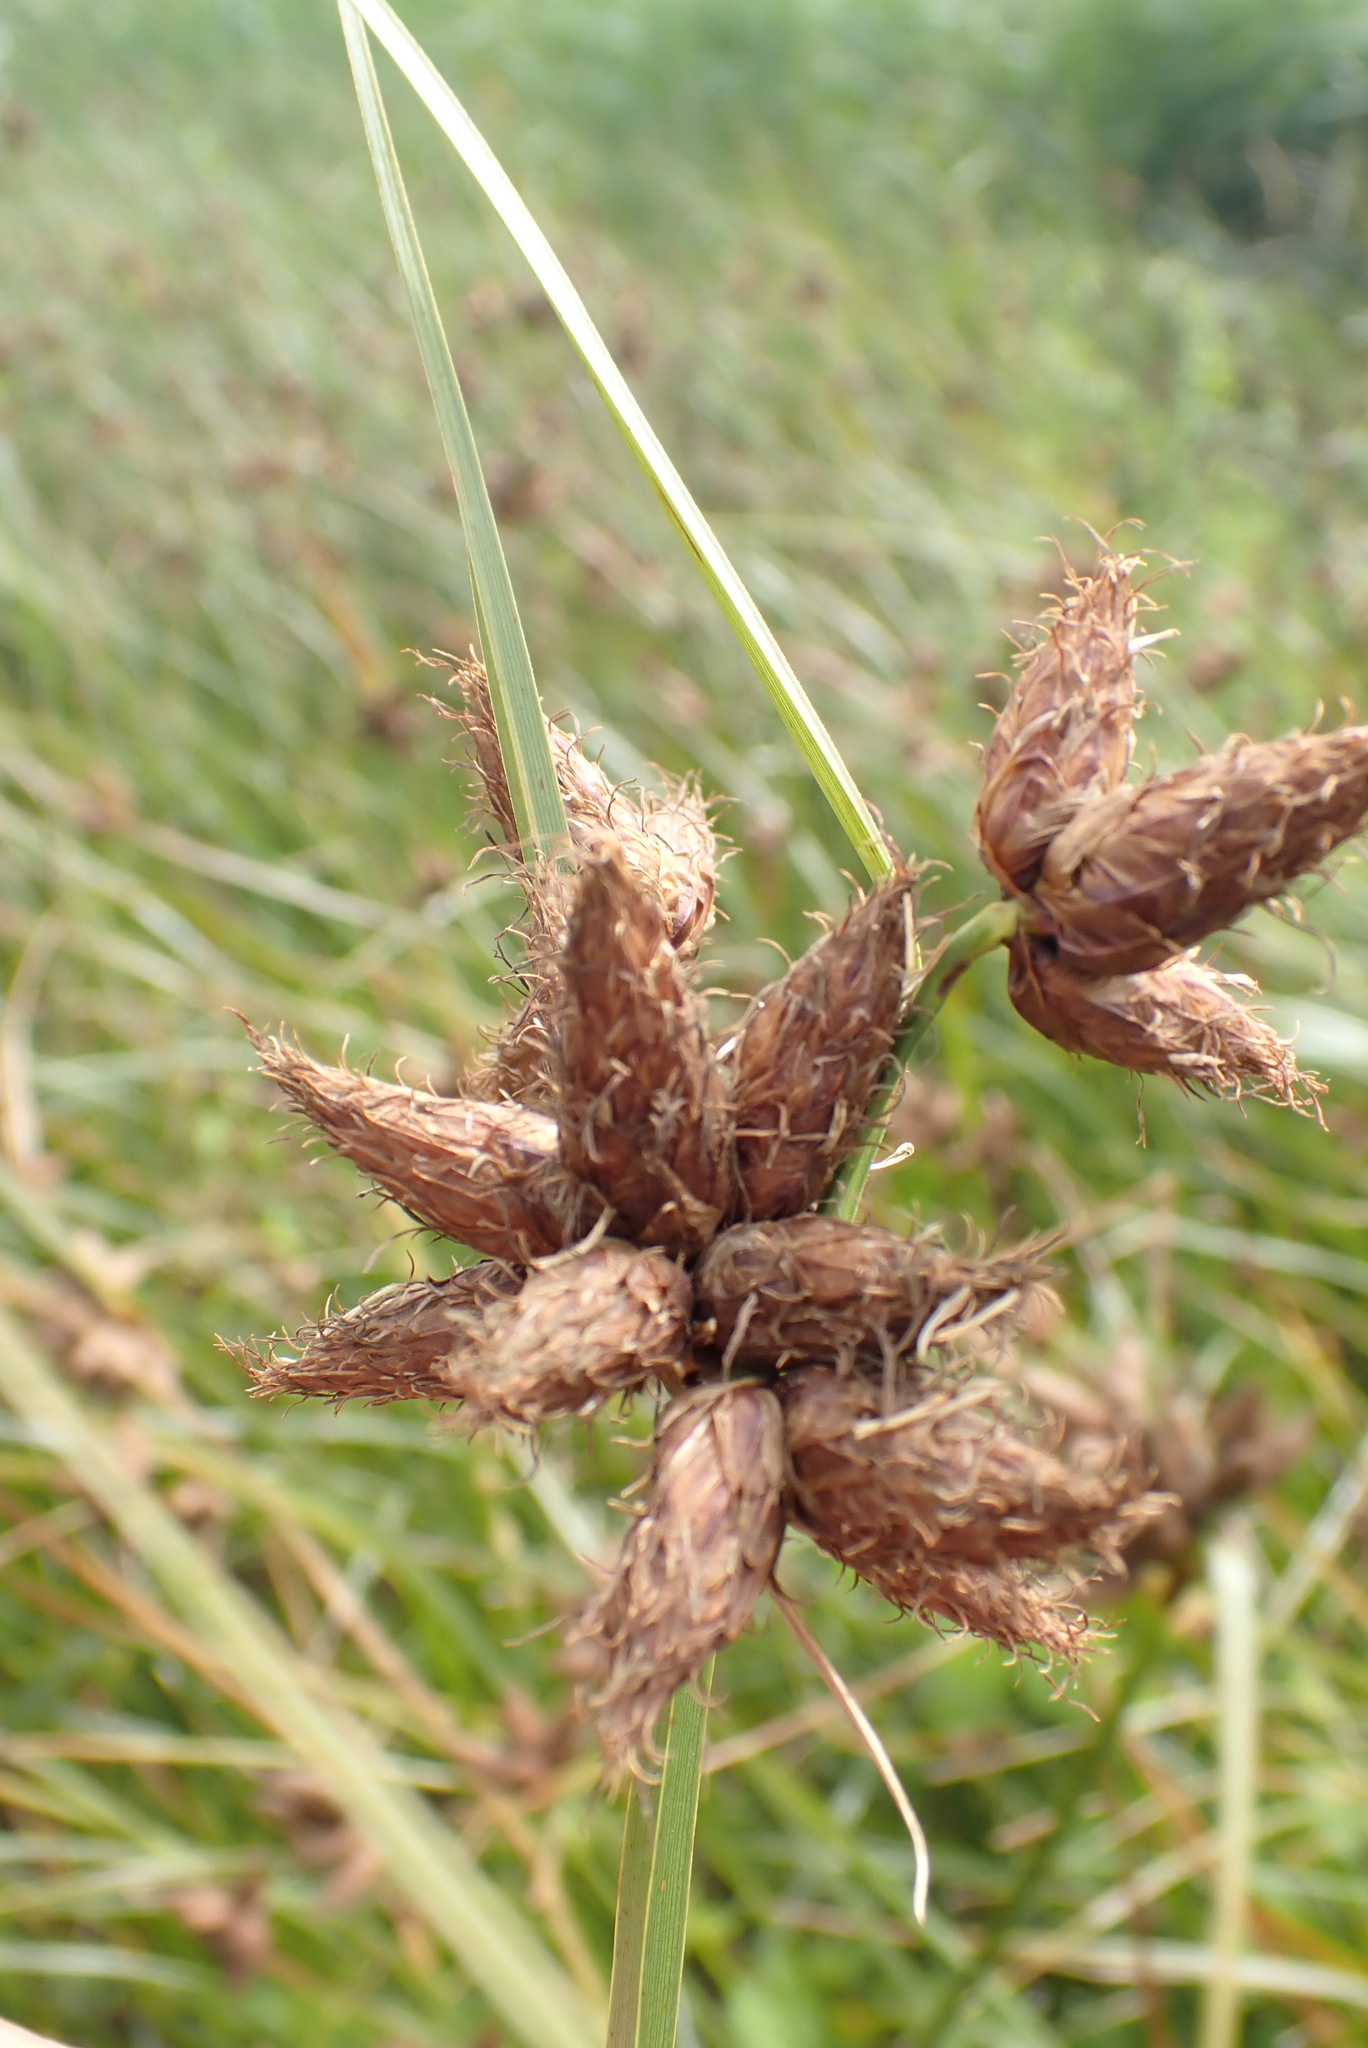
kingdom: Plantae
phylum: Tracheophyta
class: Liliopsida
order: Poales
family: Cyperaceae
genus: Bolboschoenus
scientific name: Bolboschoenus maritimus
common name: Sea club-rush
